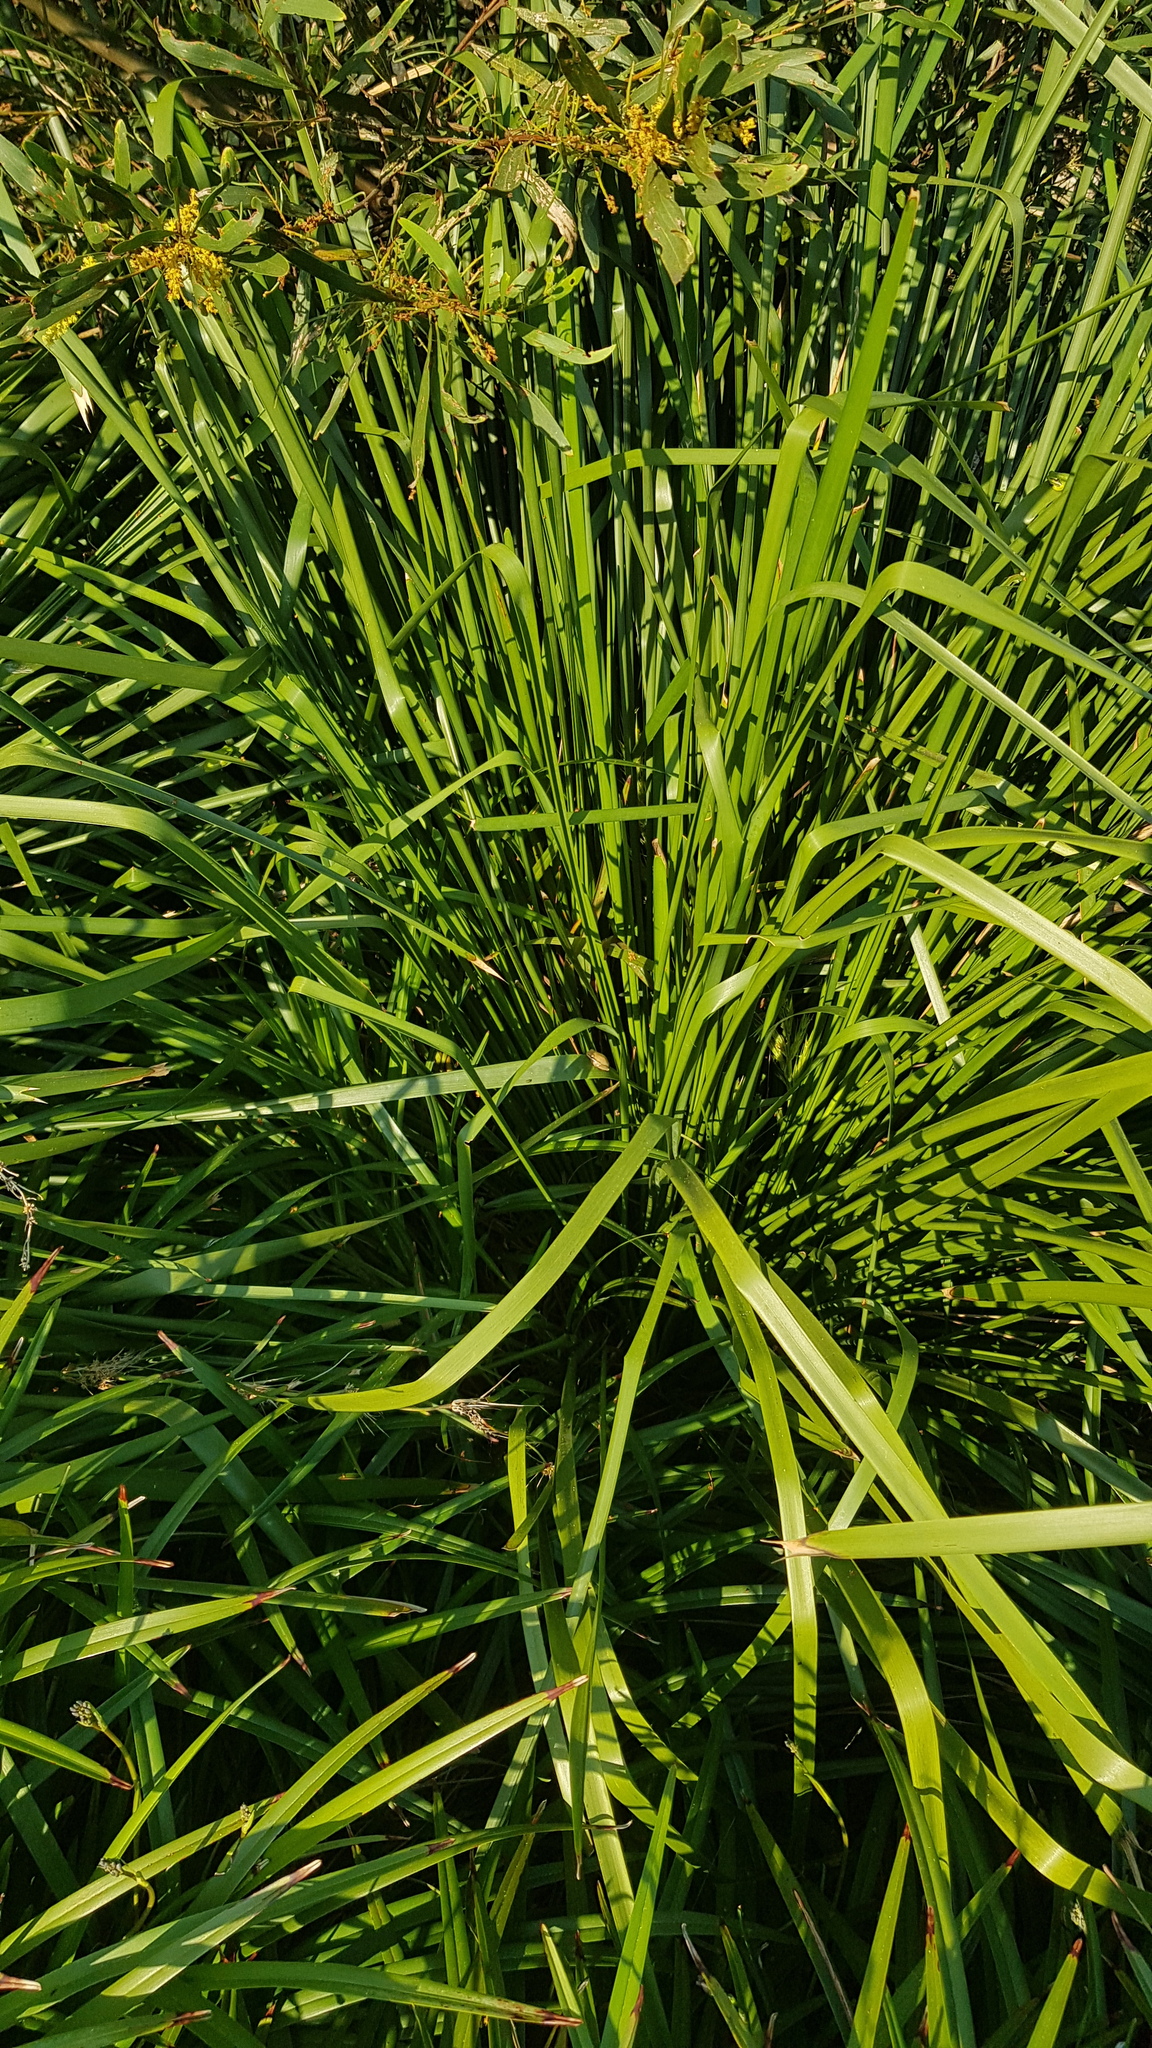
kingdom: Animalia
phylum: Chordata
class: Amphibia
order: Anura
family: Pelodryadidae
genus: Litoria
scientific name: Litoria fallax
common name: Eastern dwarf treefrog
